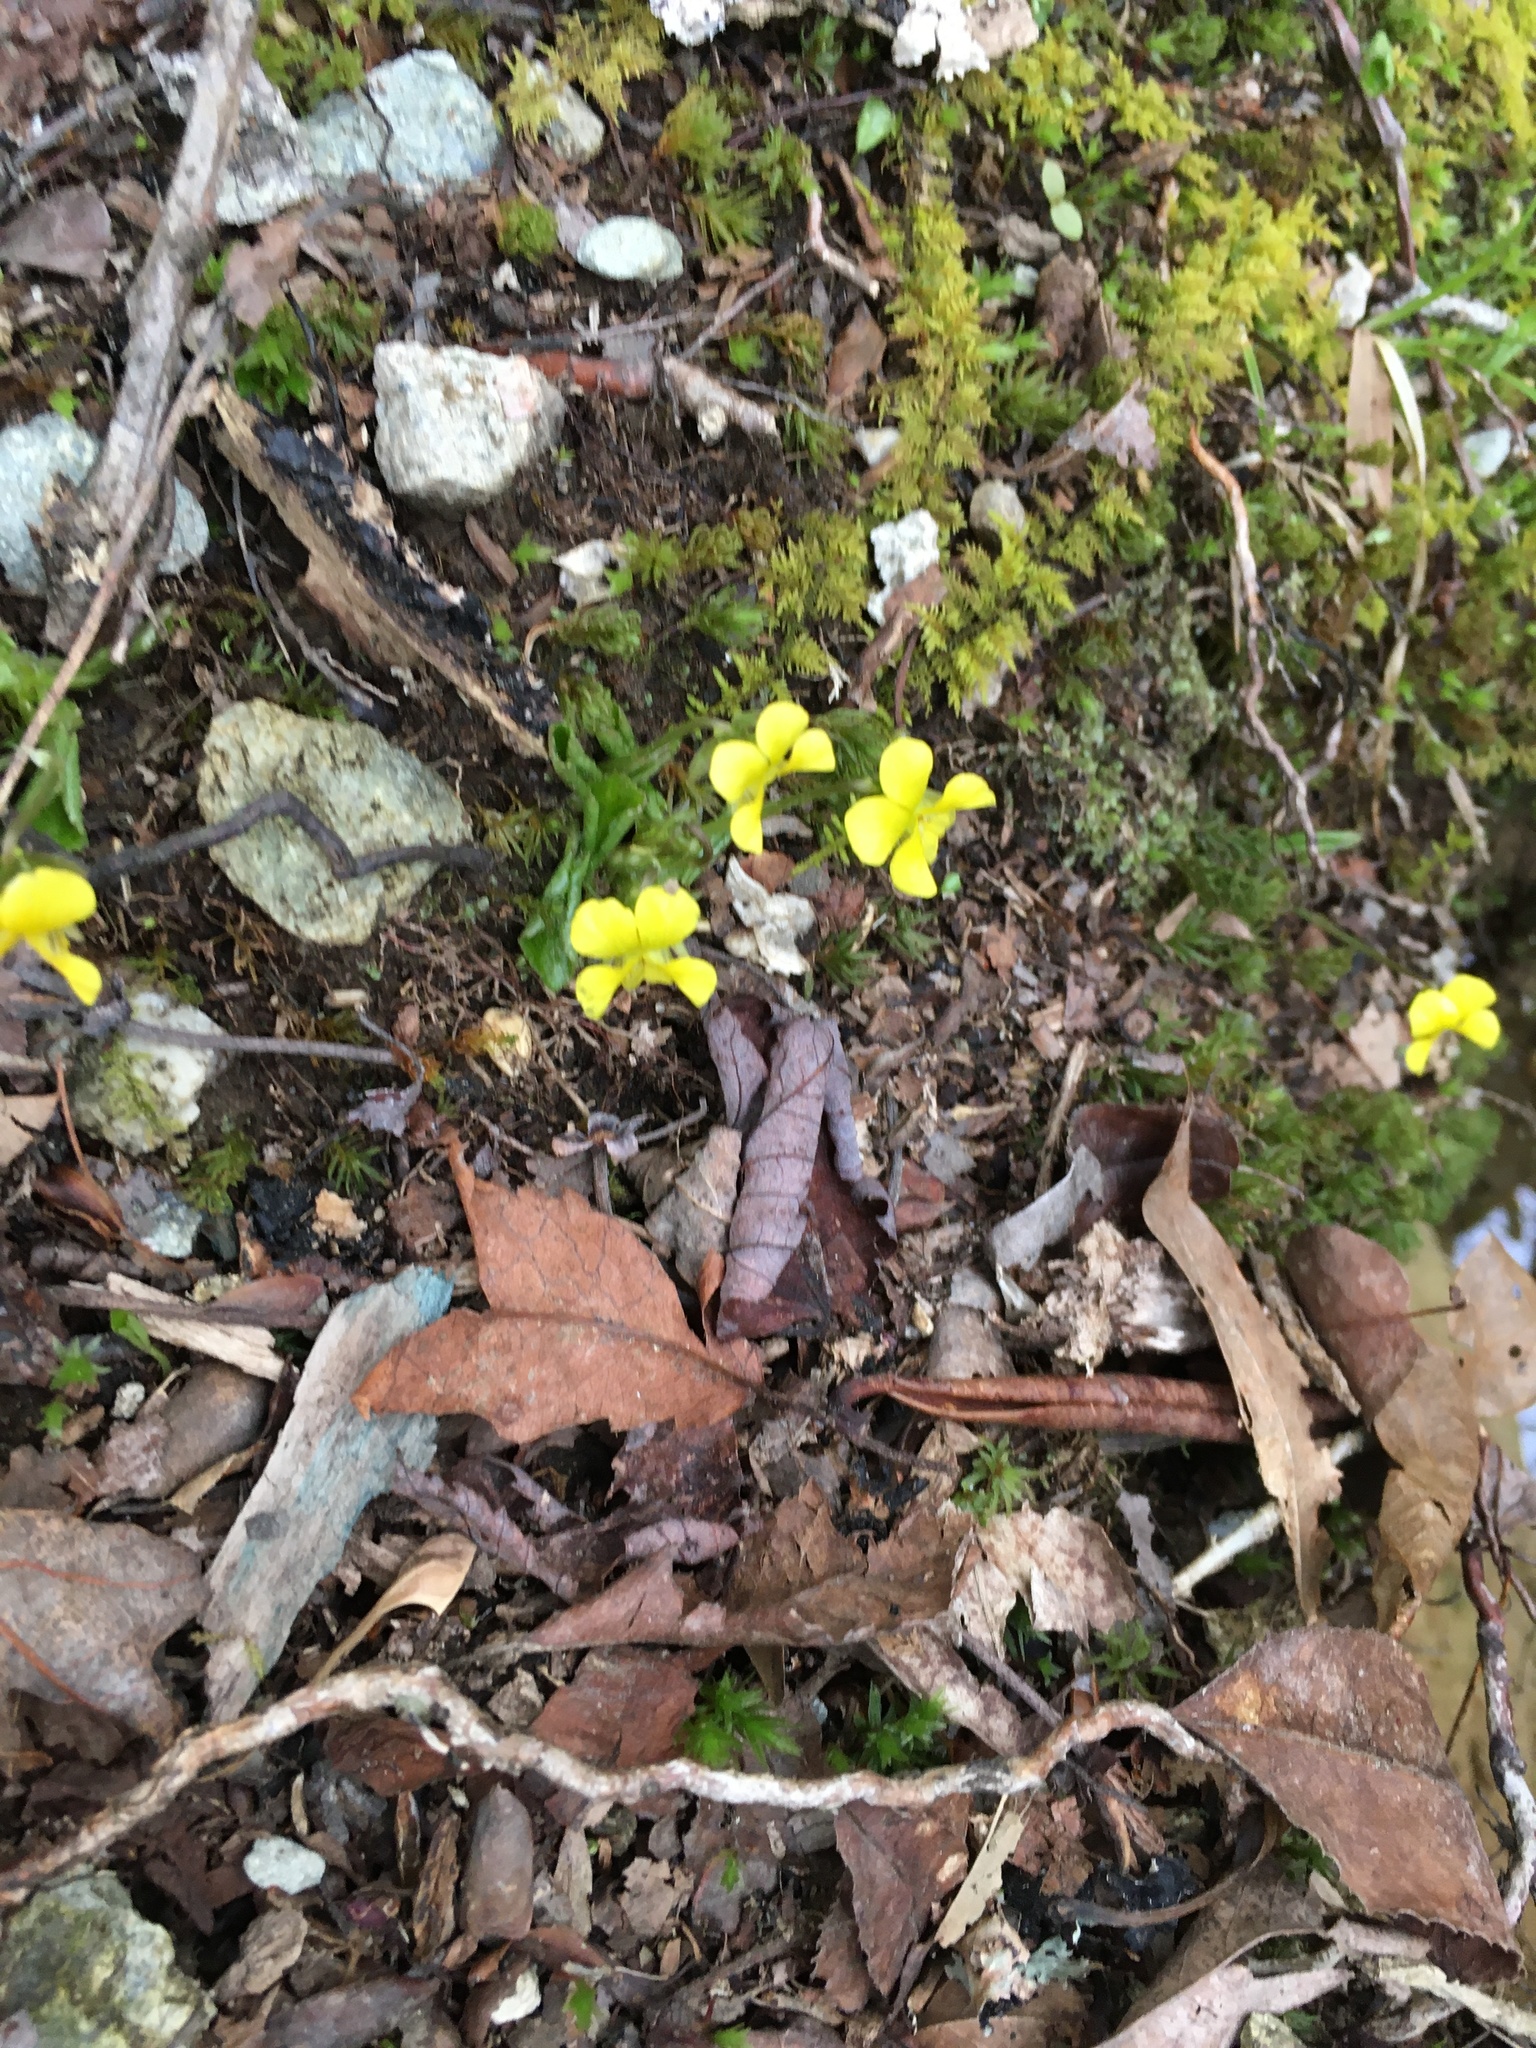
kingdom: Plantae
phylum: Tracheophyta
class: Magnoliopsida
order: Malpighiales
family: Violaceae
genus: Viola
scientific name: Viola rotundifolia
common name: Early yellow violet
